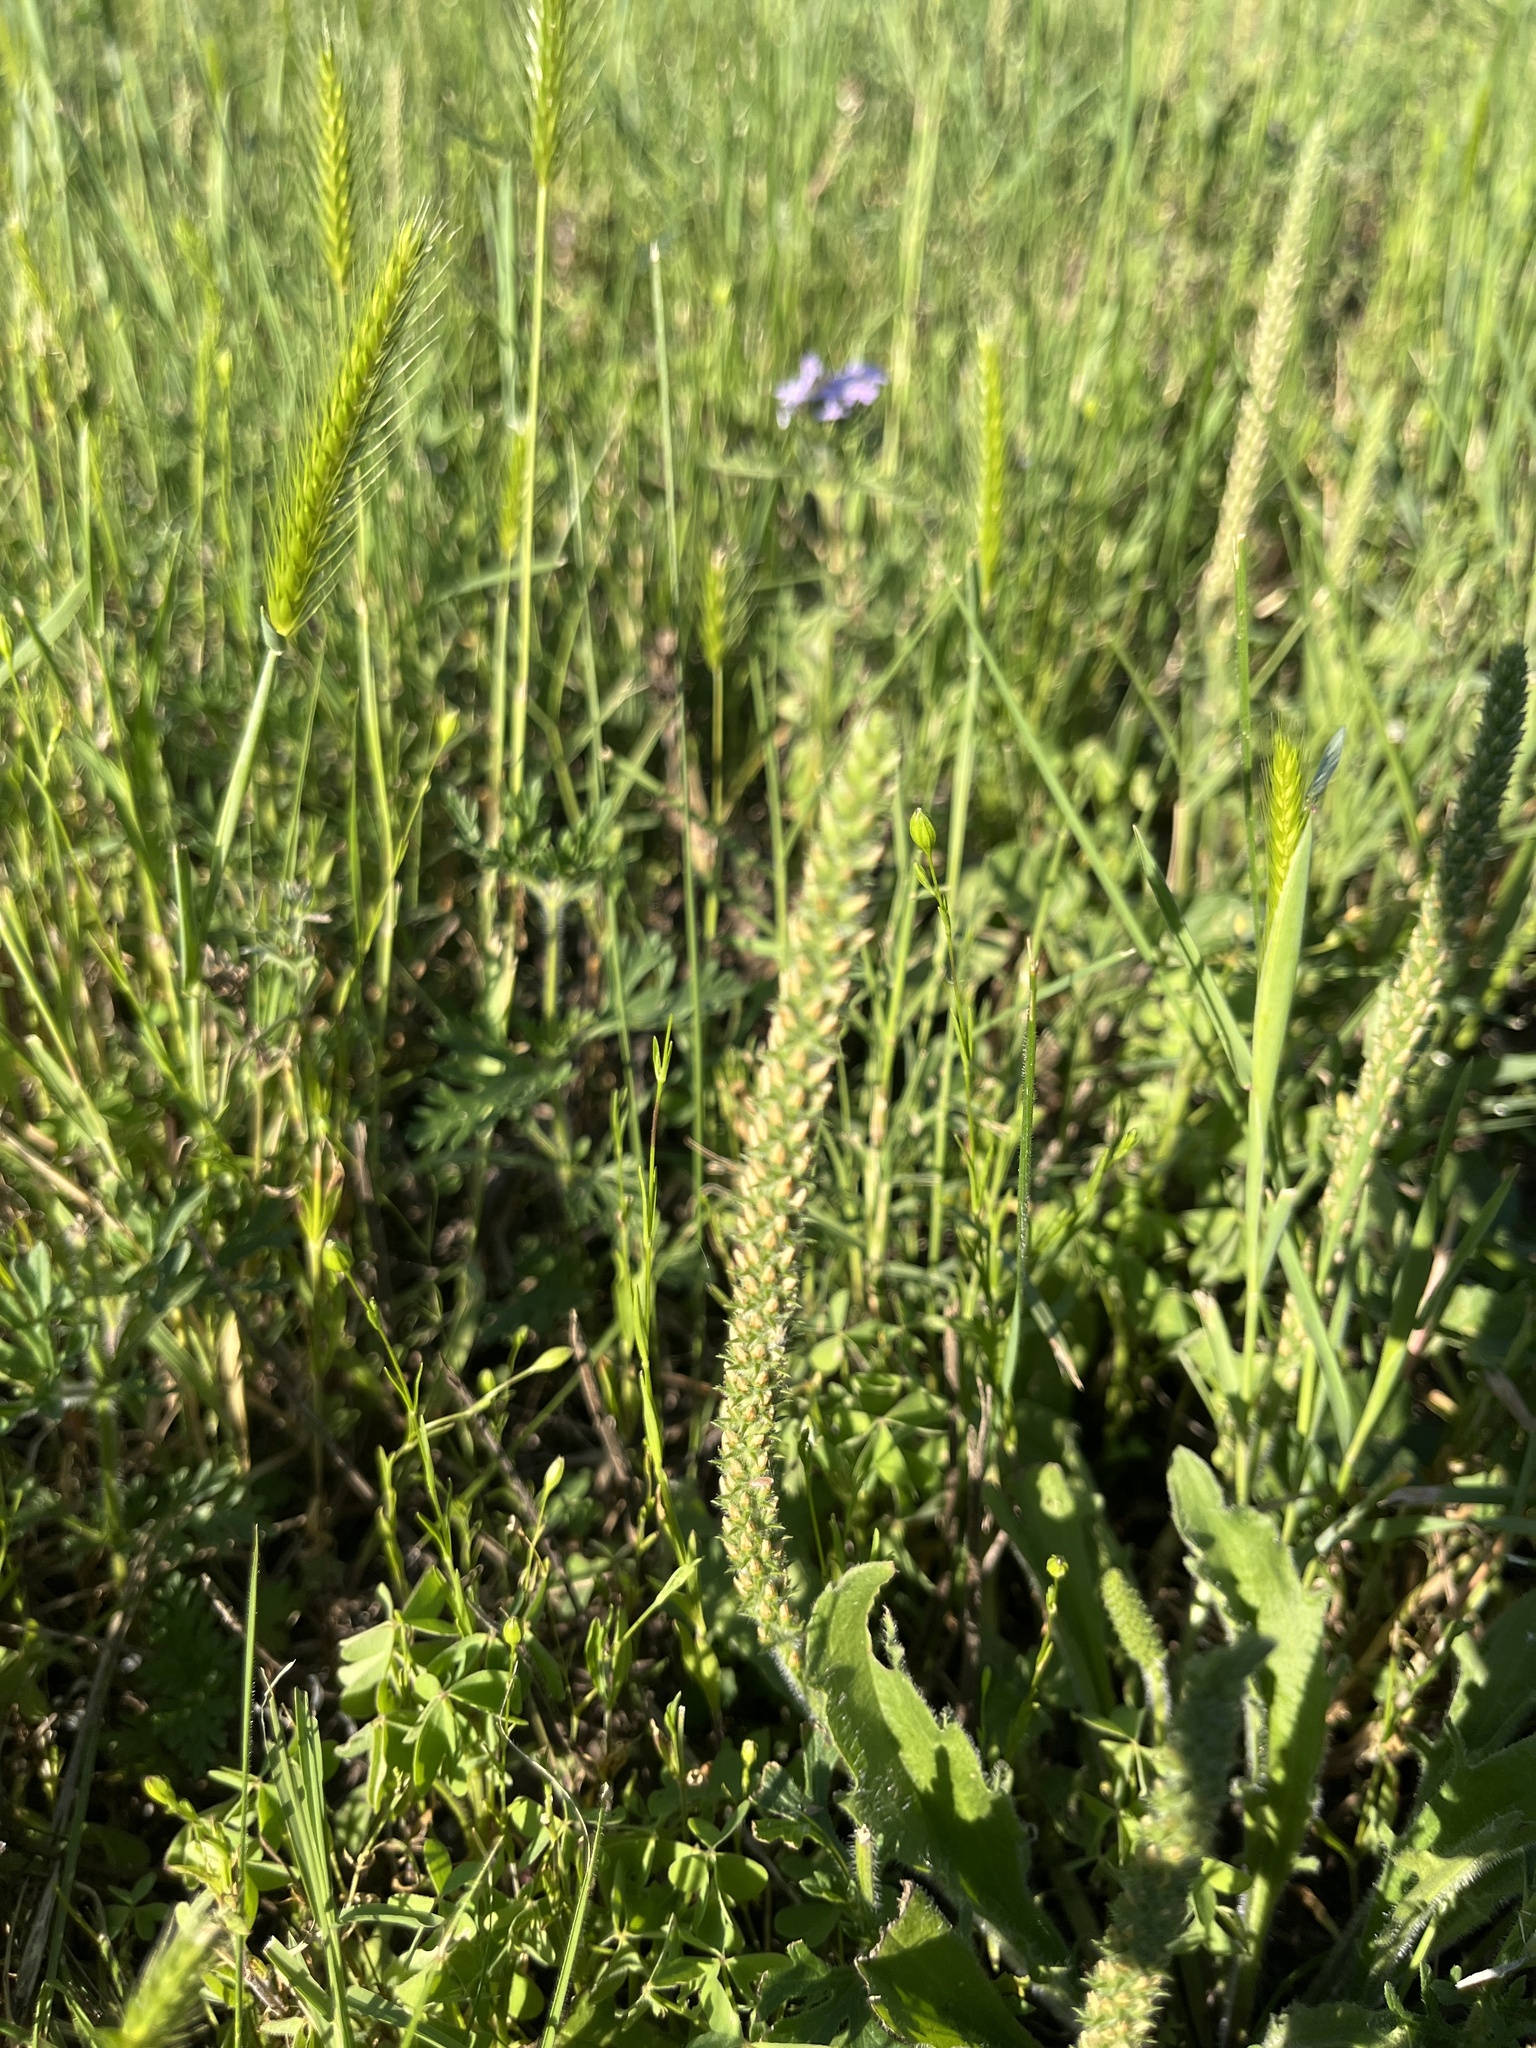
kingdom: Plantae
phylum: Tracheophyta
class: Magnoliopsida
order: Lamiales
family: Plantaginaceae
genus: Plantago
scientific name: Plantago rhodosperma
